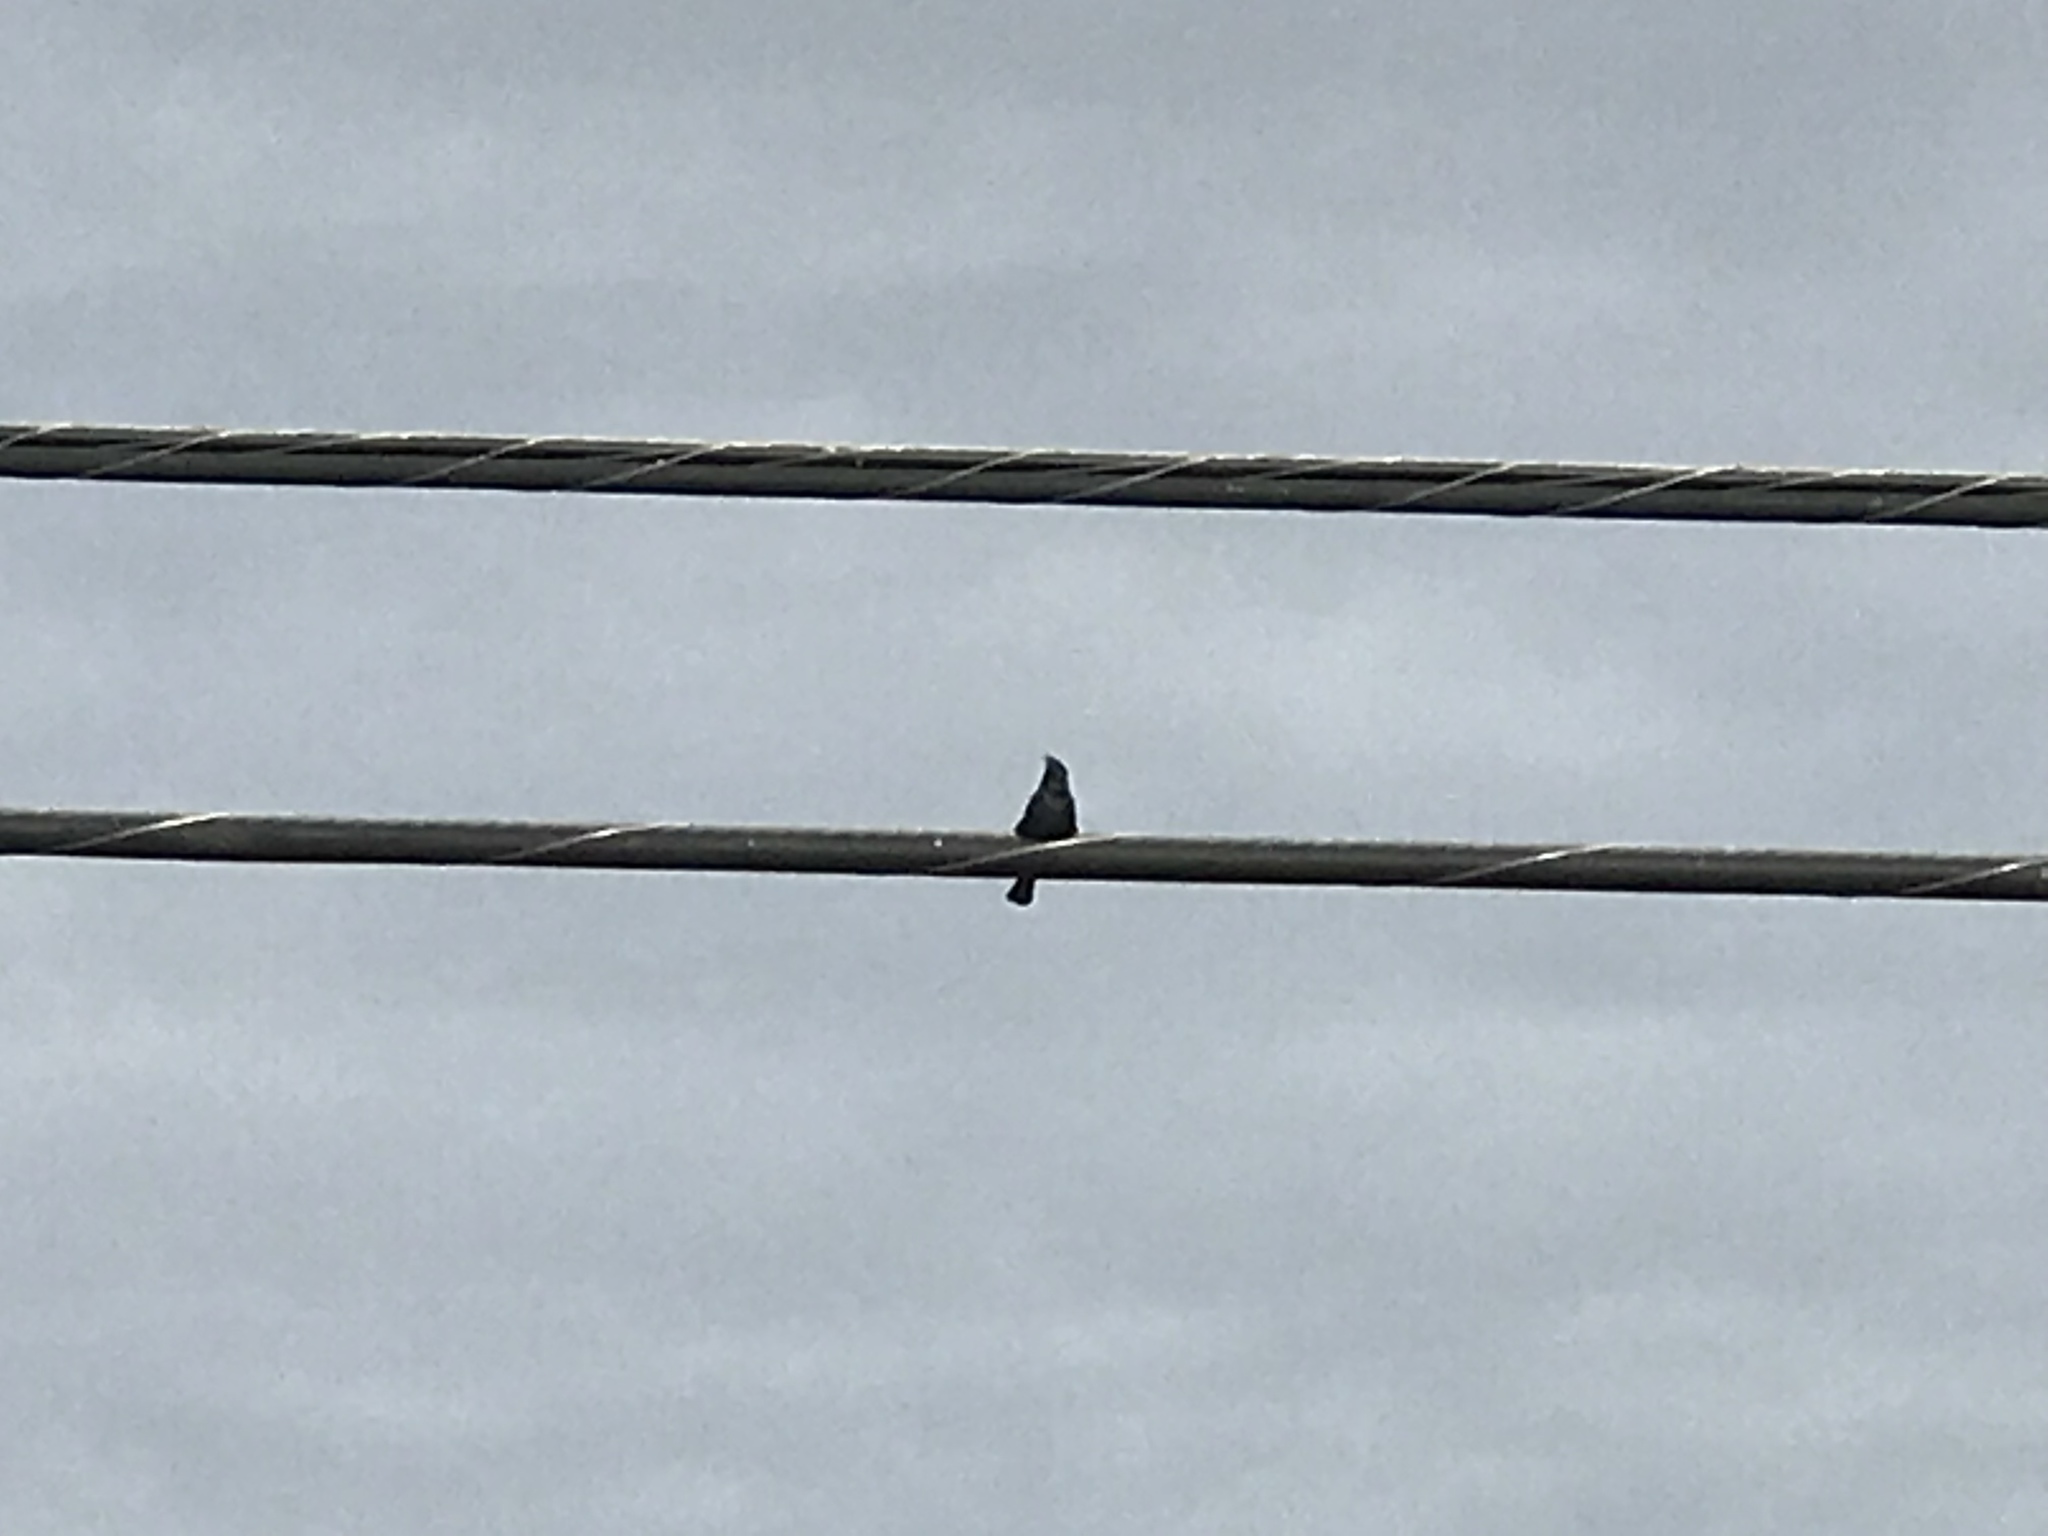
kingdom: Animalia
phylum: Chordata
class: Aves
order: Passeriformes
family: Ptilogonatidae
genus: Phainopepla
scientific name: Phainopepla nitens
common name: Phainopepla
